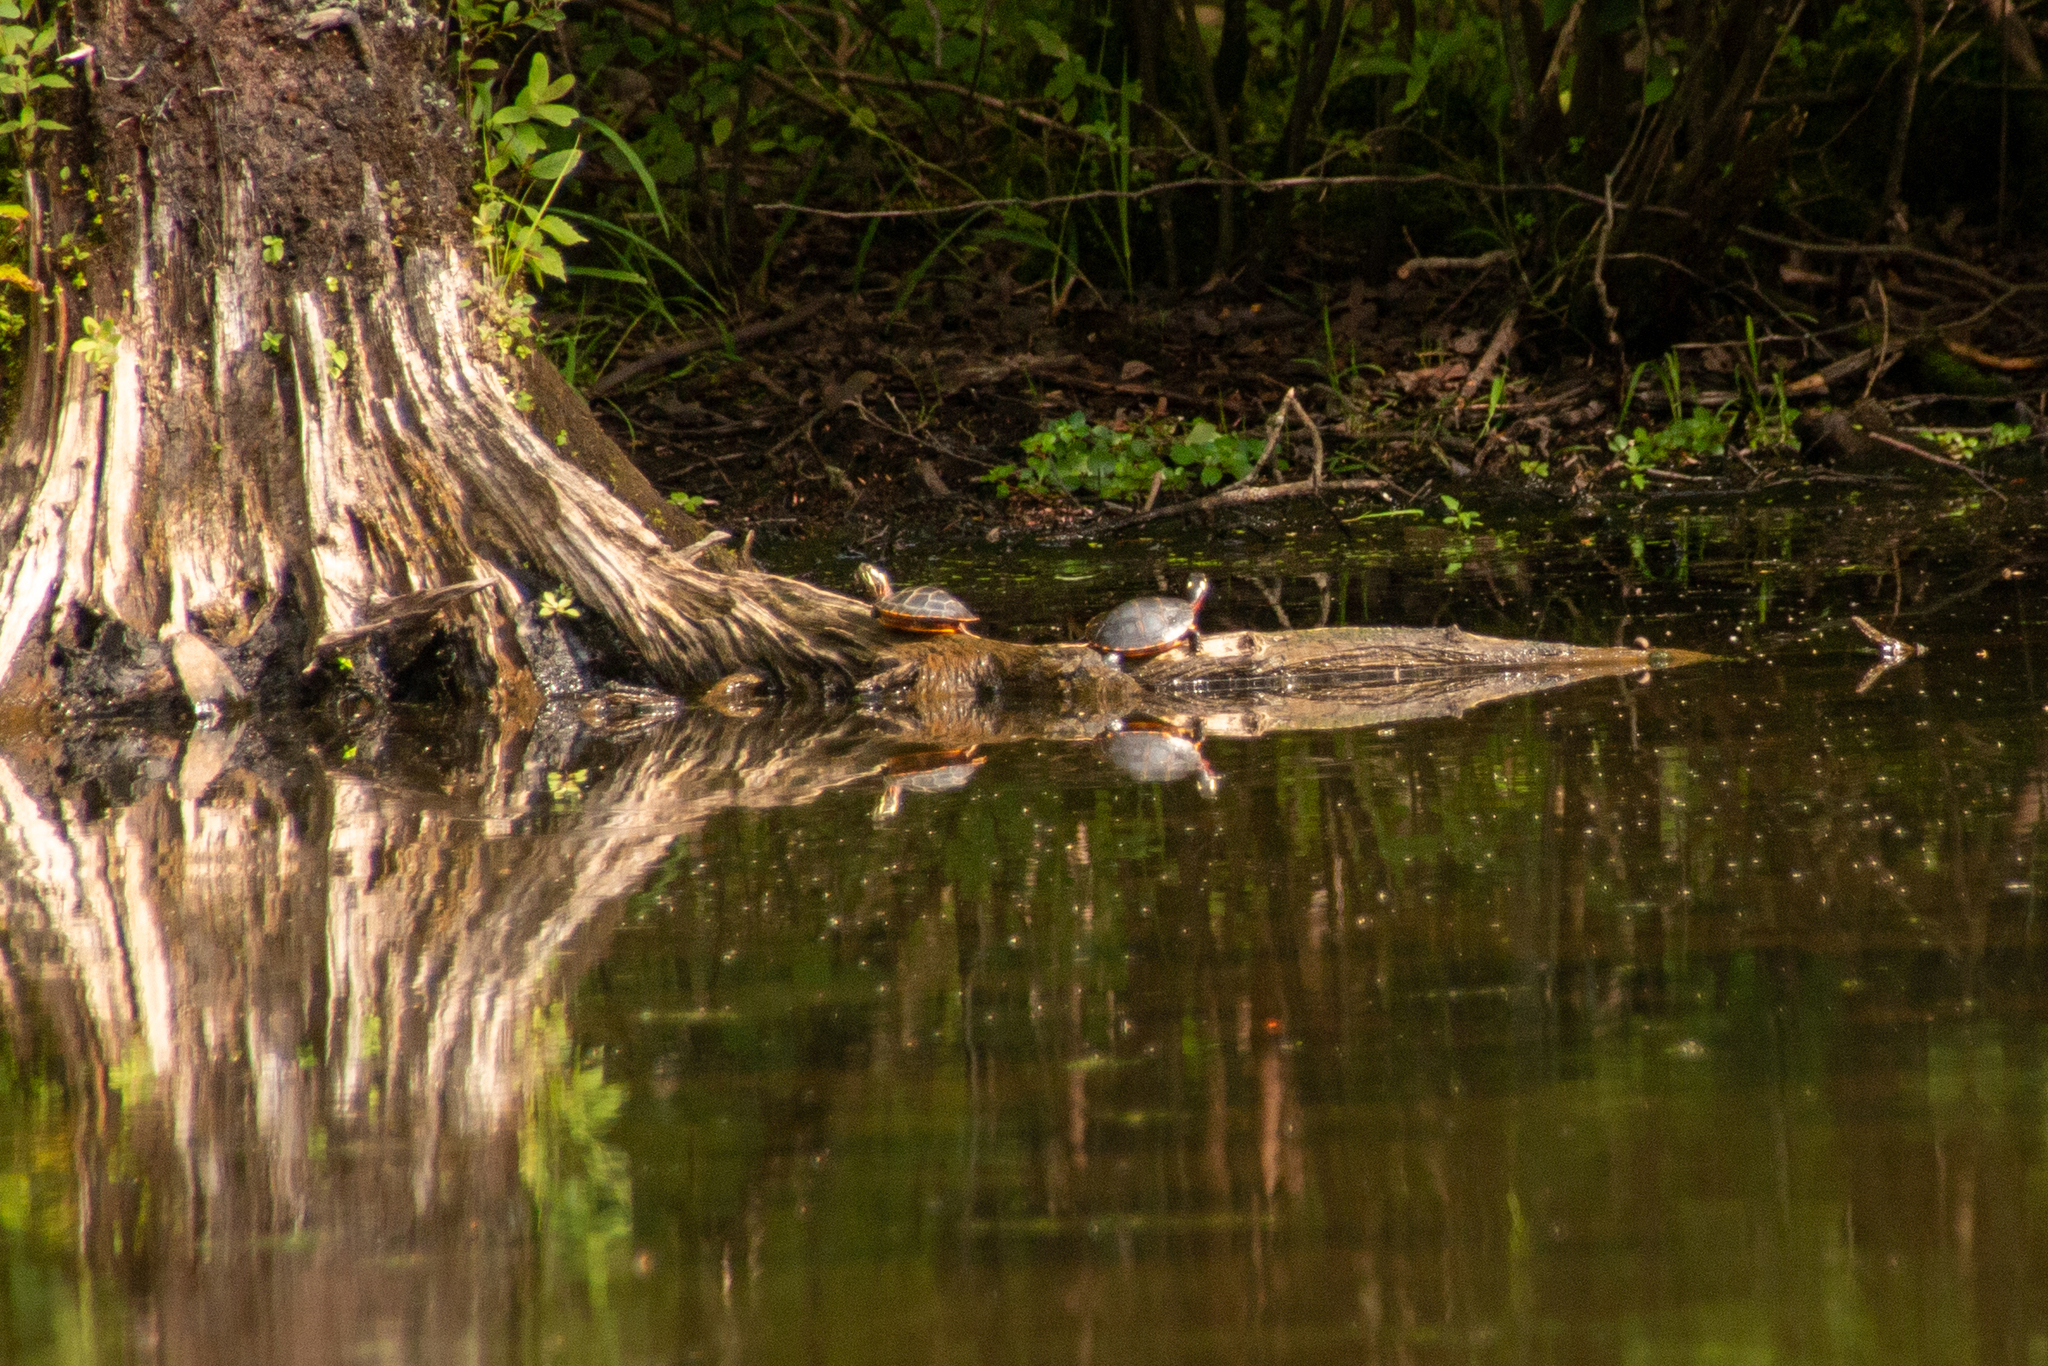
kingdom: Animalia
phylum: Chordata
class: Testudines
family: Emydidae
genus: Chrysemys
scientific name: Chrysemys picta
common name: Painted turtle
